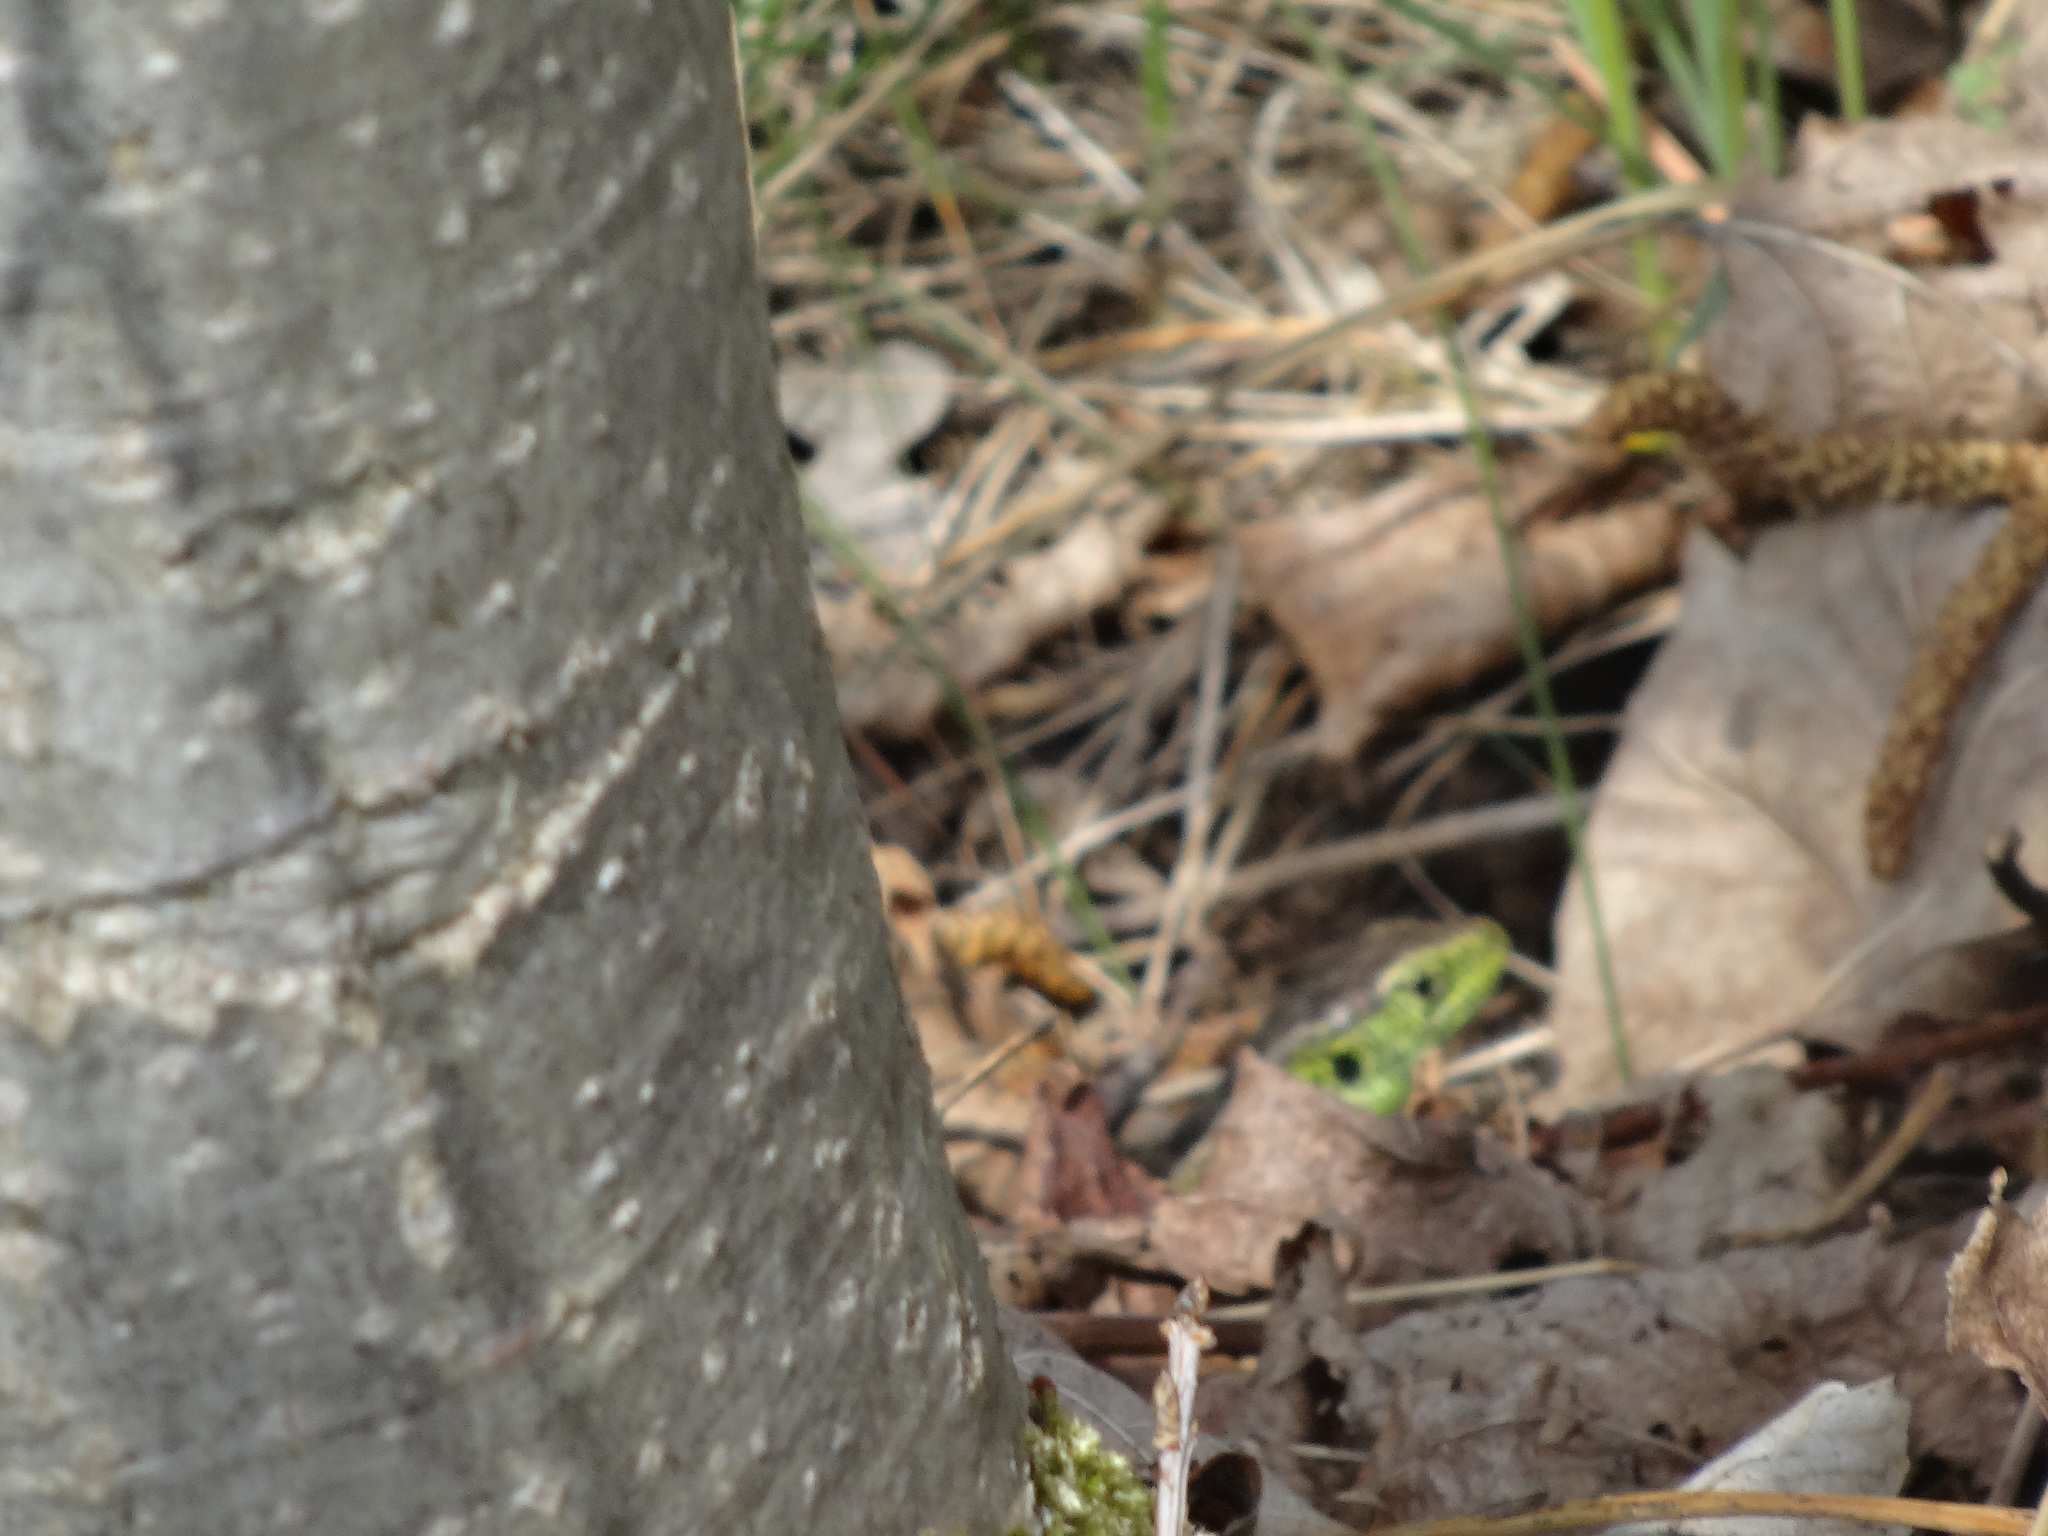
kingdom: Animalia
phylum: Chordata
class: Squamata
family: Lacertidae
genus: Lacerta
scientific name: Lacerta agilis
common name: Sand lizard
